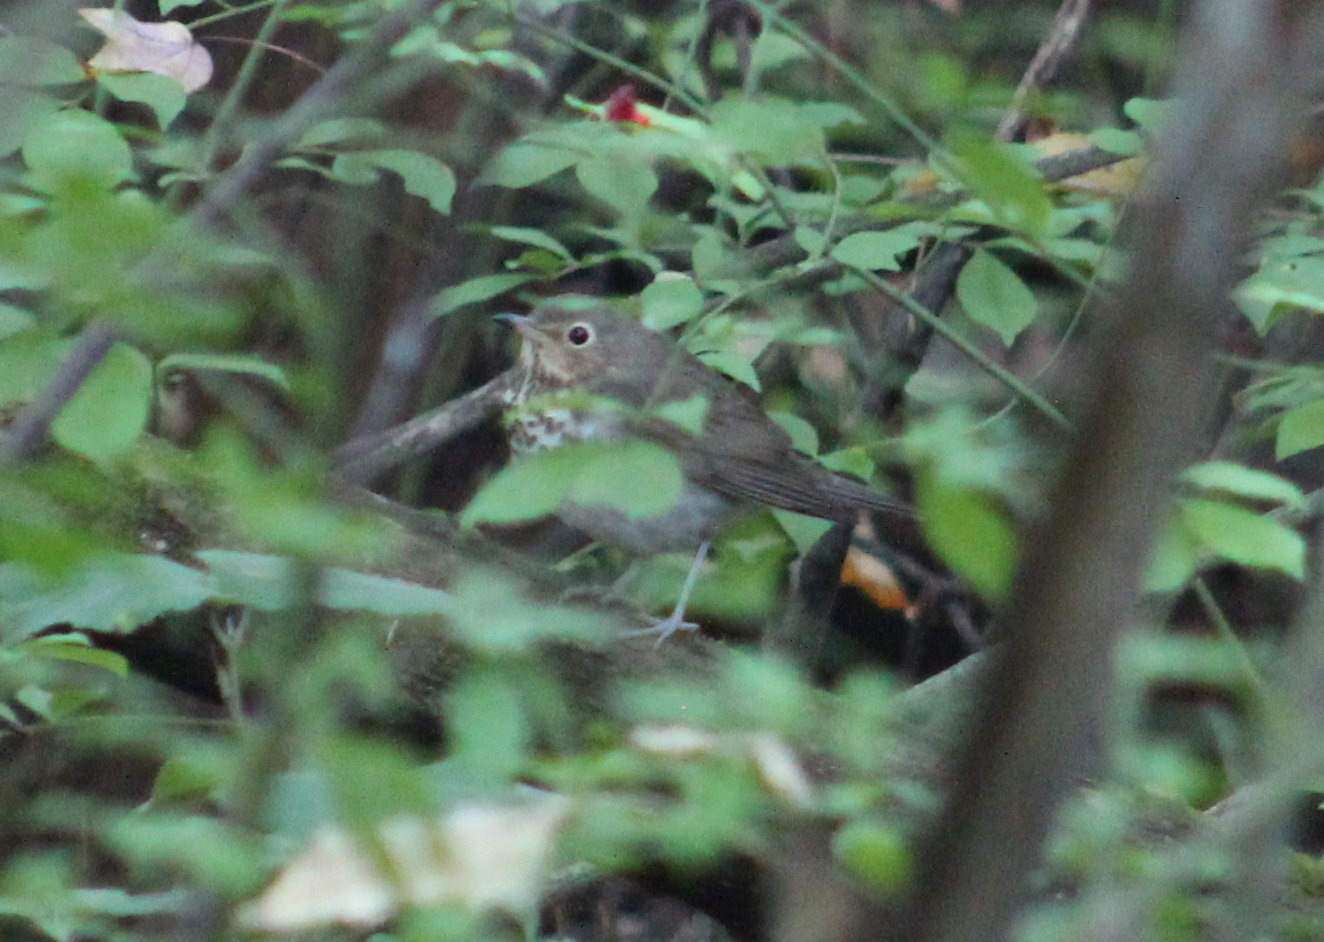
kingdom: Animalia
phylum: Chordata
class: Aves
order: Passeriformes
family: Turdidae
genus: Catharus
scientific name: Catharus ustulatus
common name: Swainson's thrush
